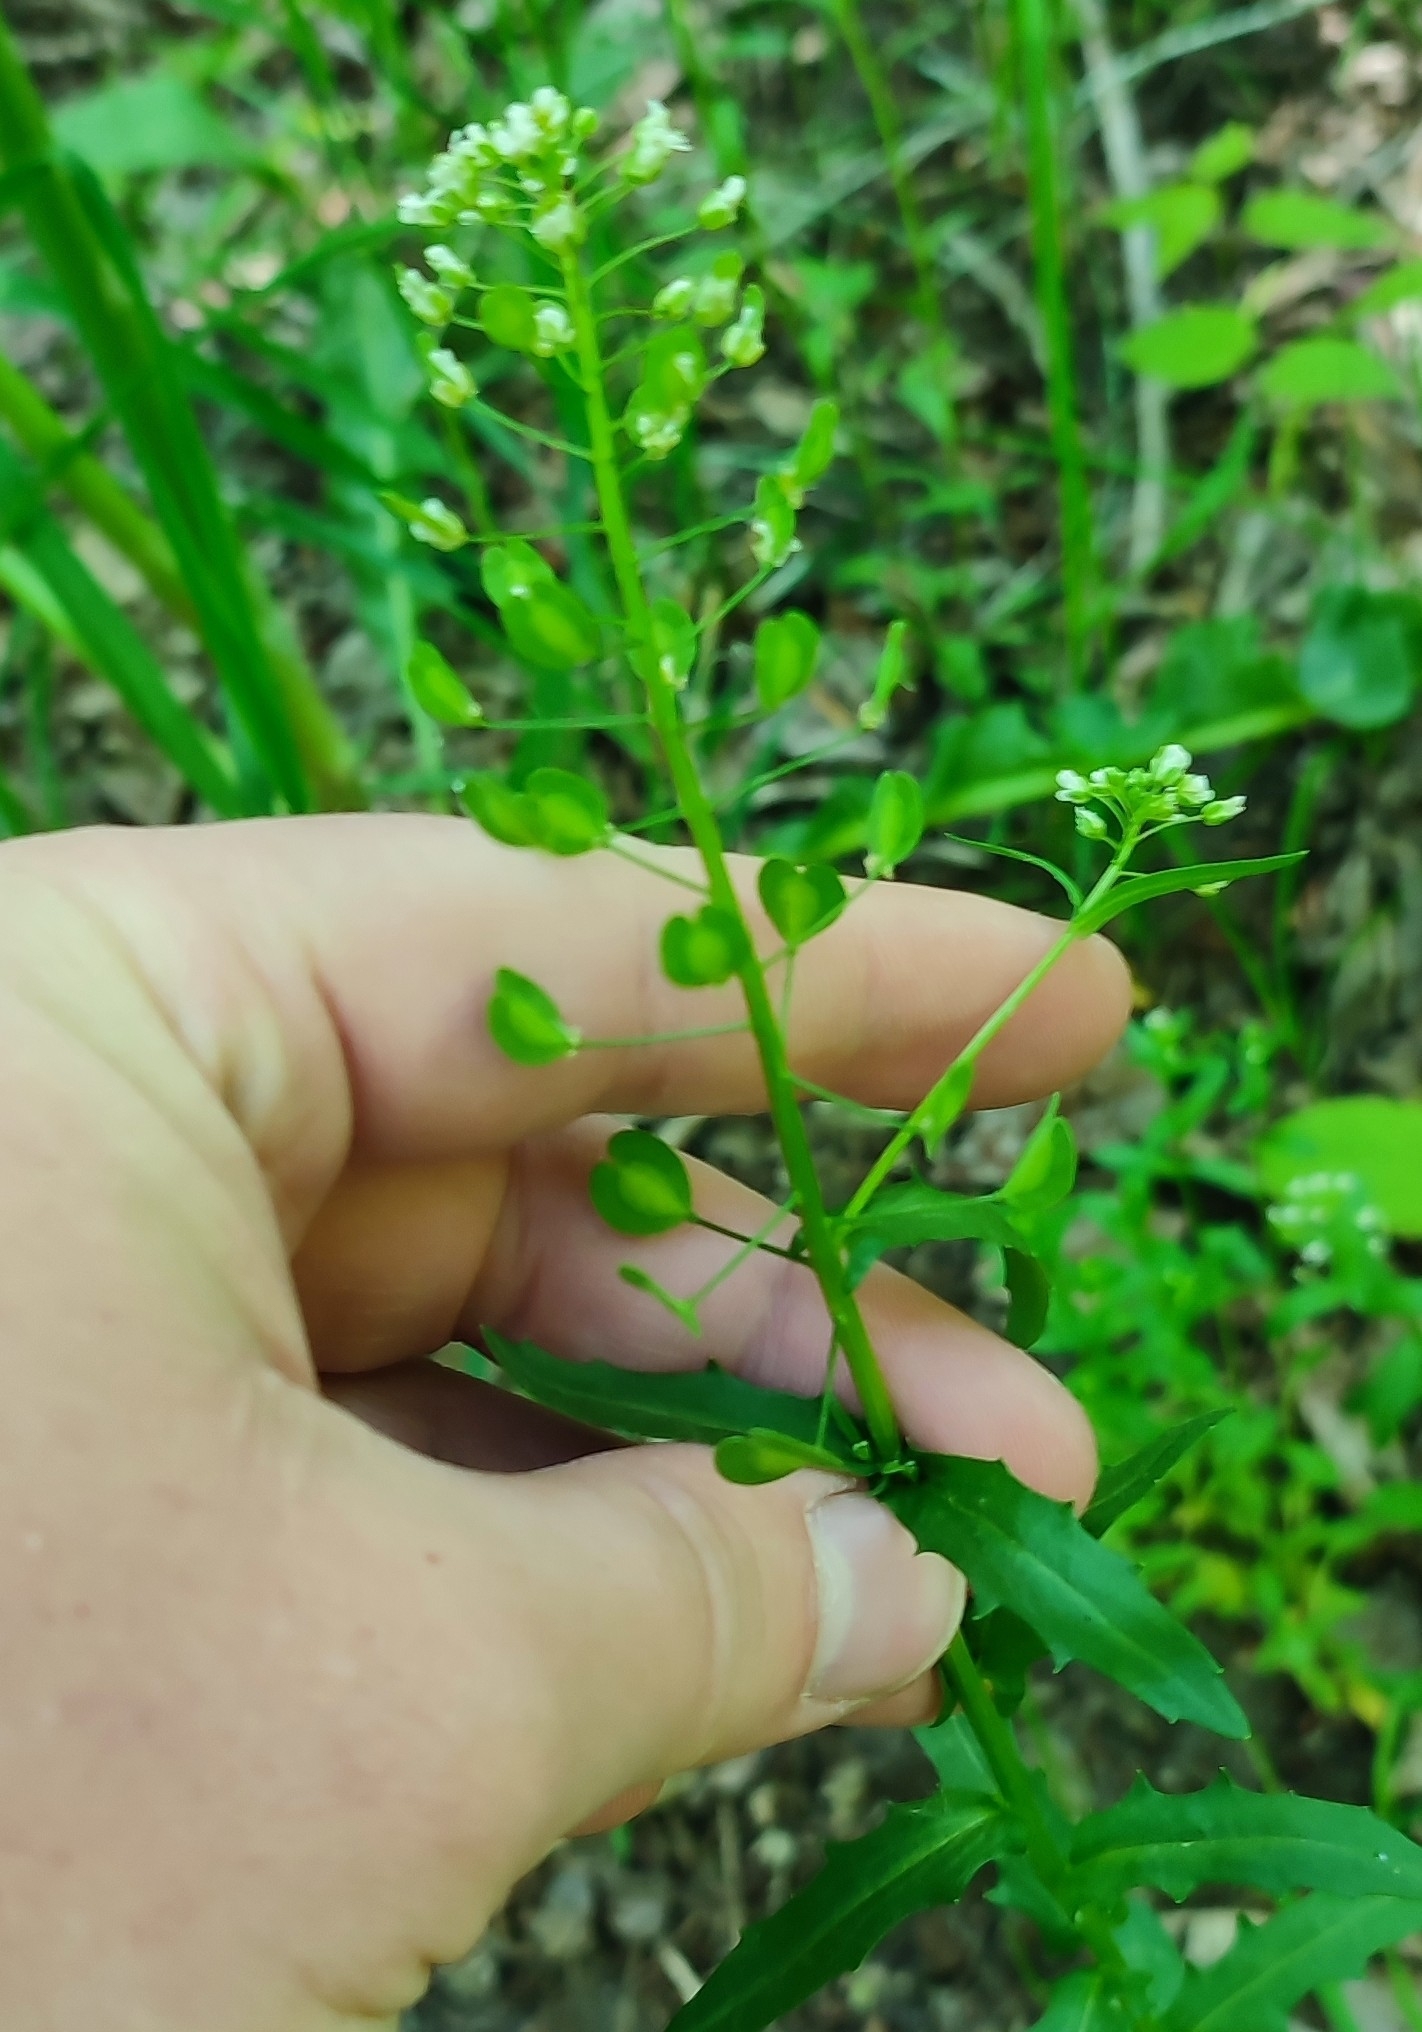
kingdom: Plantae
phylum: Tracheophyta
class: Magnoliopsida
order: Brassicales
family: Brassicaceae
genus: Thlaspi
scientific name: Thlaspi arvense
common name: Field pennycress
